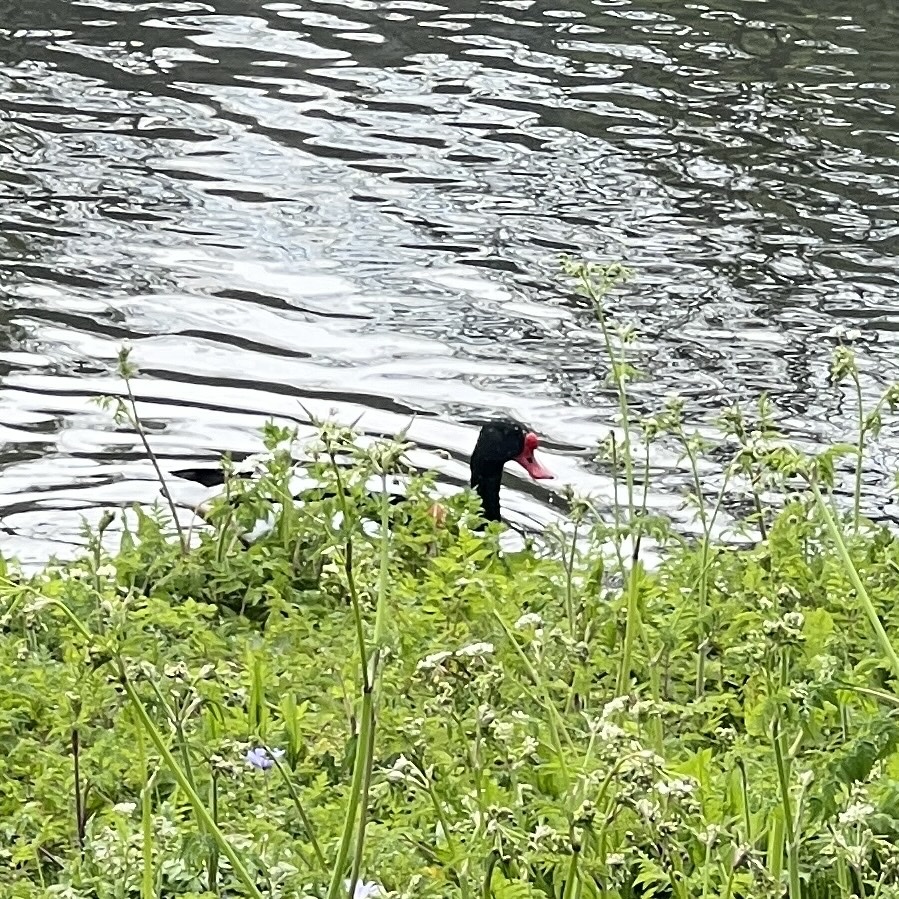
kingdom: Animalia
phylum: Chordata
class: Aves
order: Anseriformes
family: Anatidae
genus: Tadorna
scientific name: Tadorna tadorna
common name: Common shelduck
